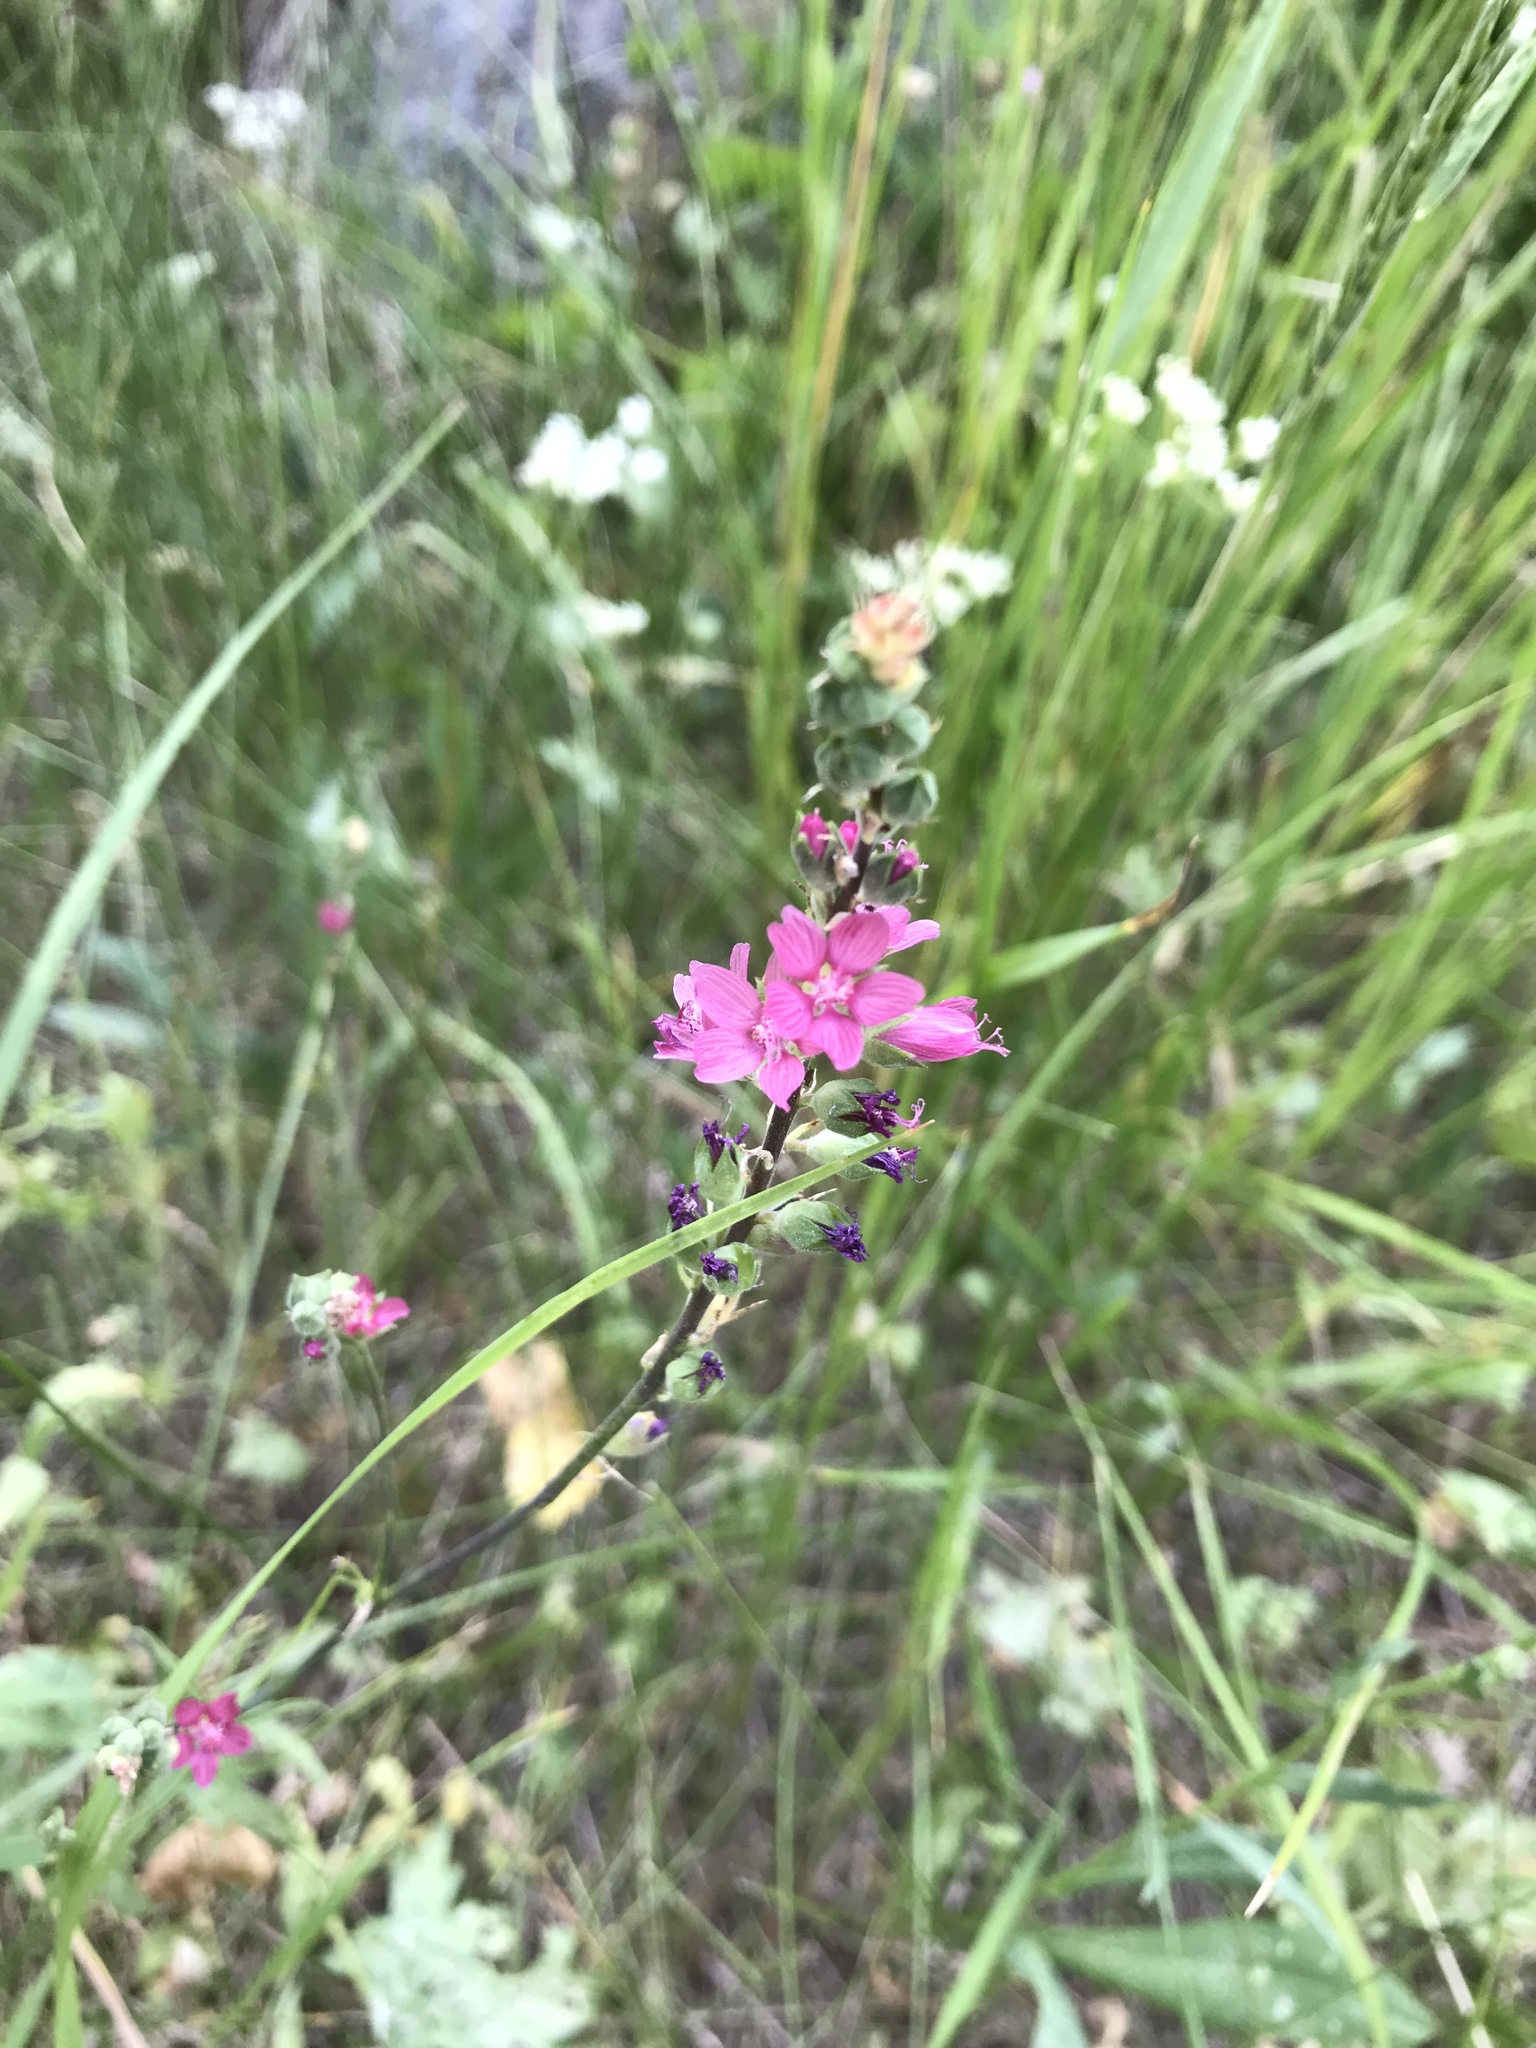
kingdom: Plantae
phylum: Tracheophyta
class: Magnoliopsida
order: Malvales
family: Malvaceae
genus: Sidalcea
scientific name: Sidalcea oregana
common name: Oregon checker-mallow
